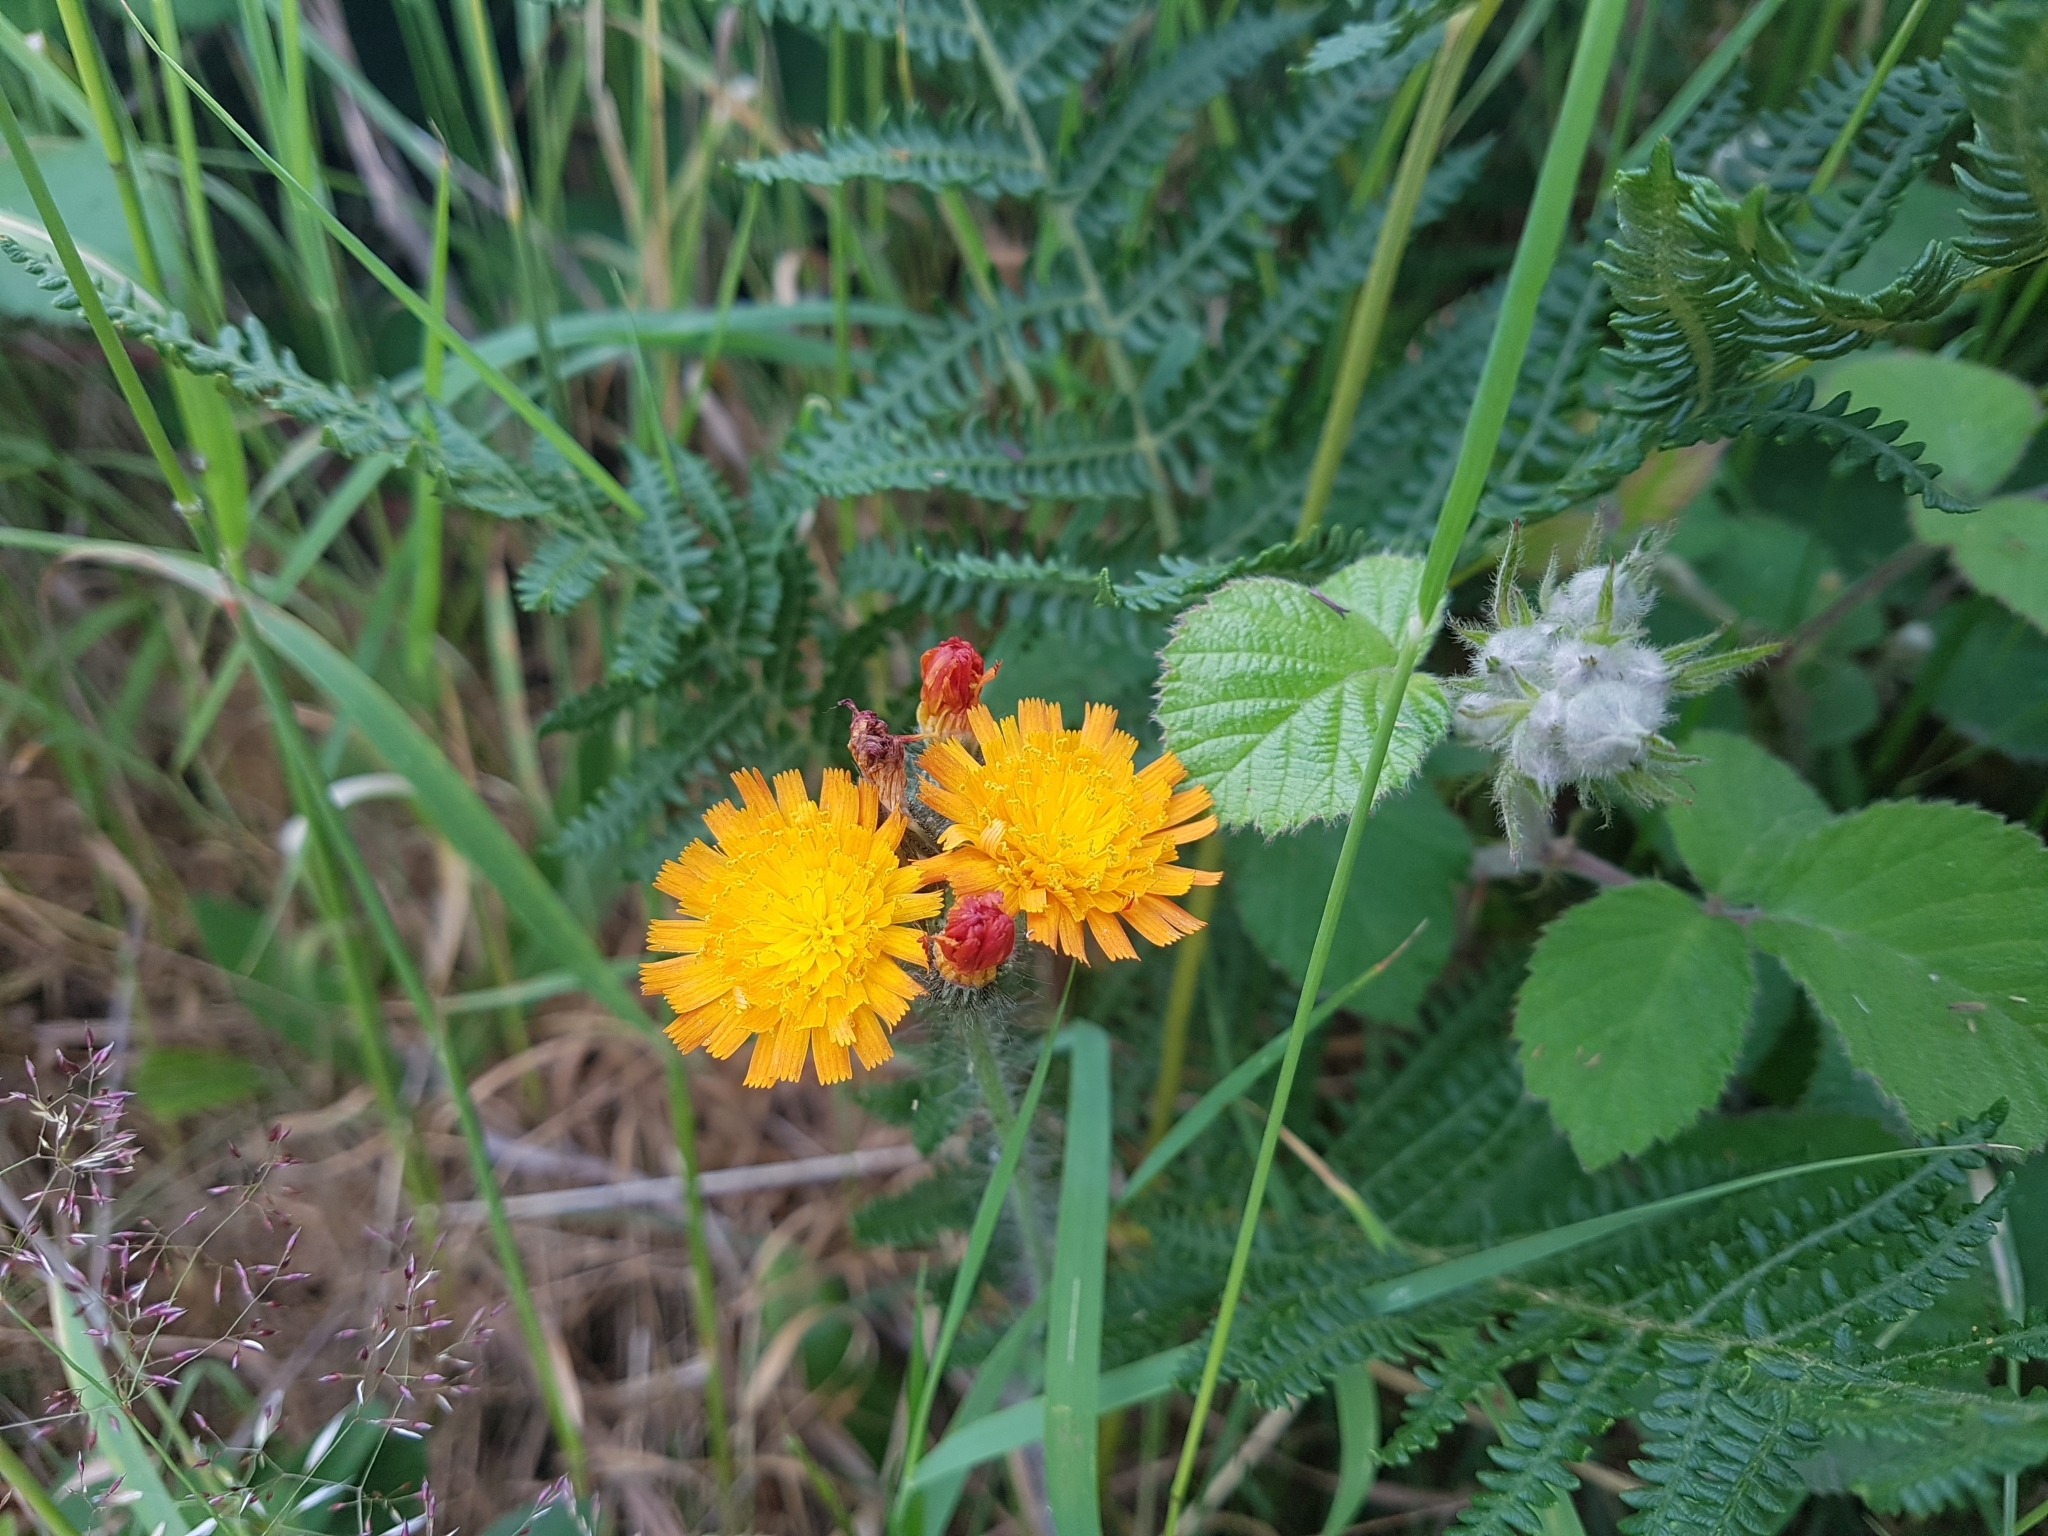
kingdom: Plantae
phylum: Tracheophyta
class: Magnoliopsida
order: Asterales
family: Asteraceae
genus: Pilosella
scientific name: Pilosella aurantiaca
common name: Fox-and-cubs
